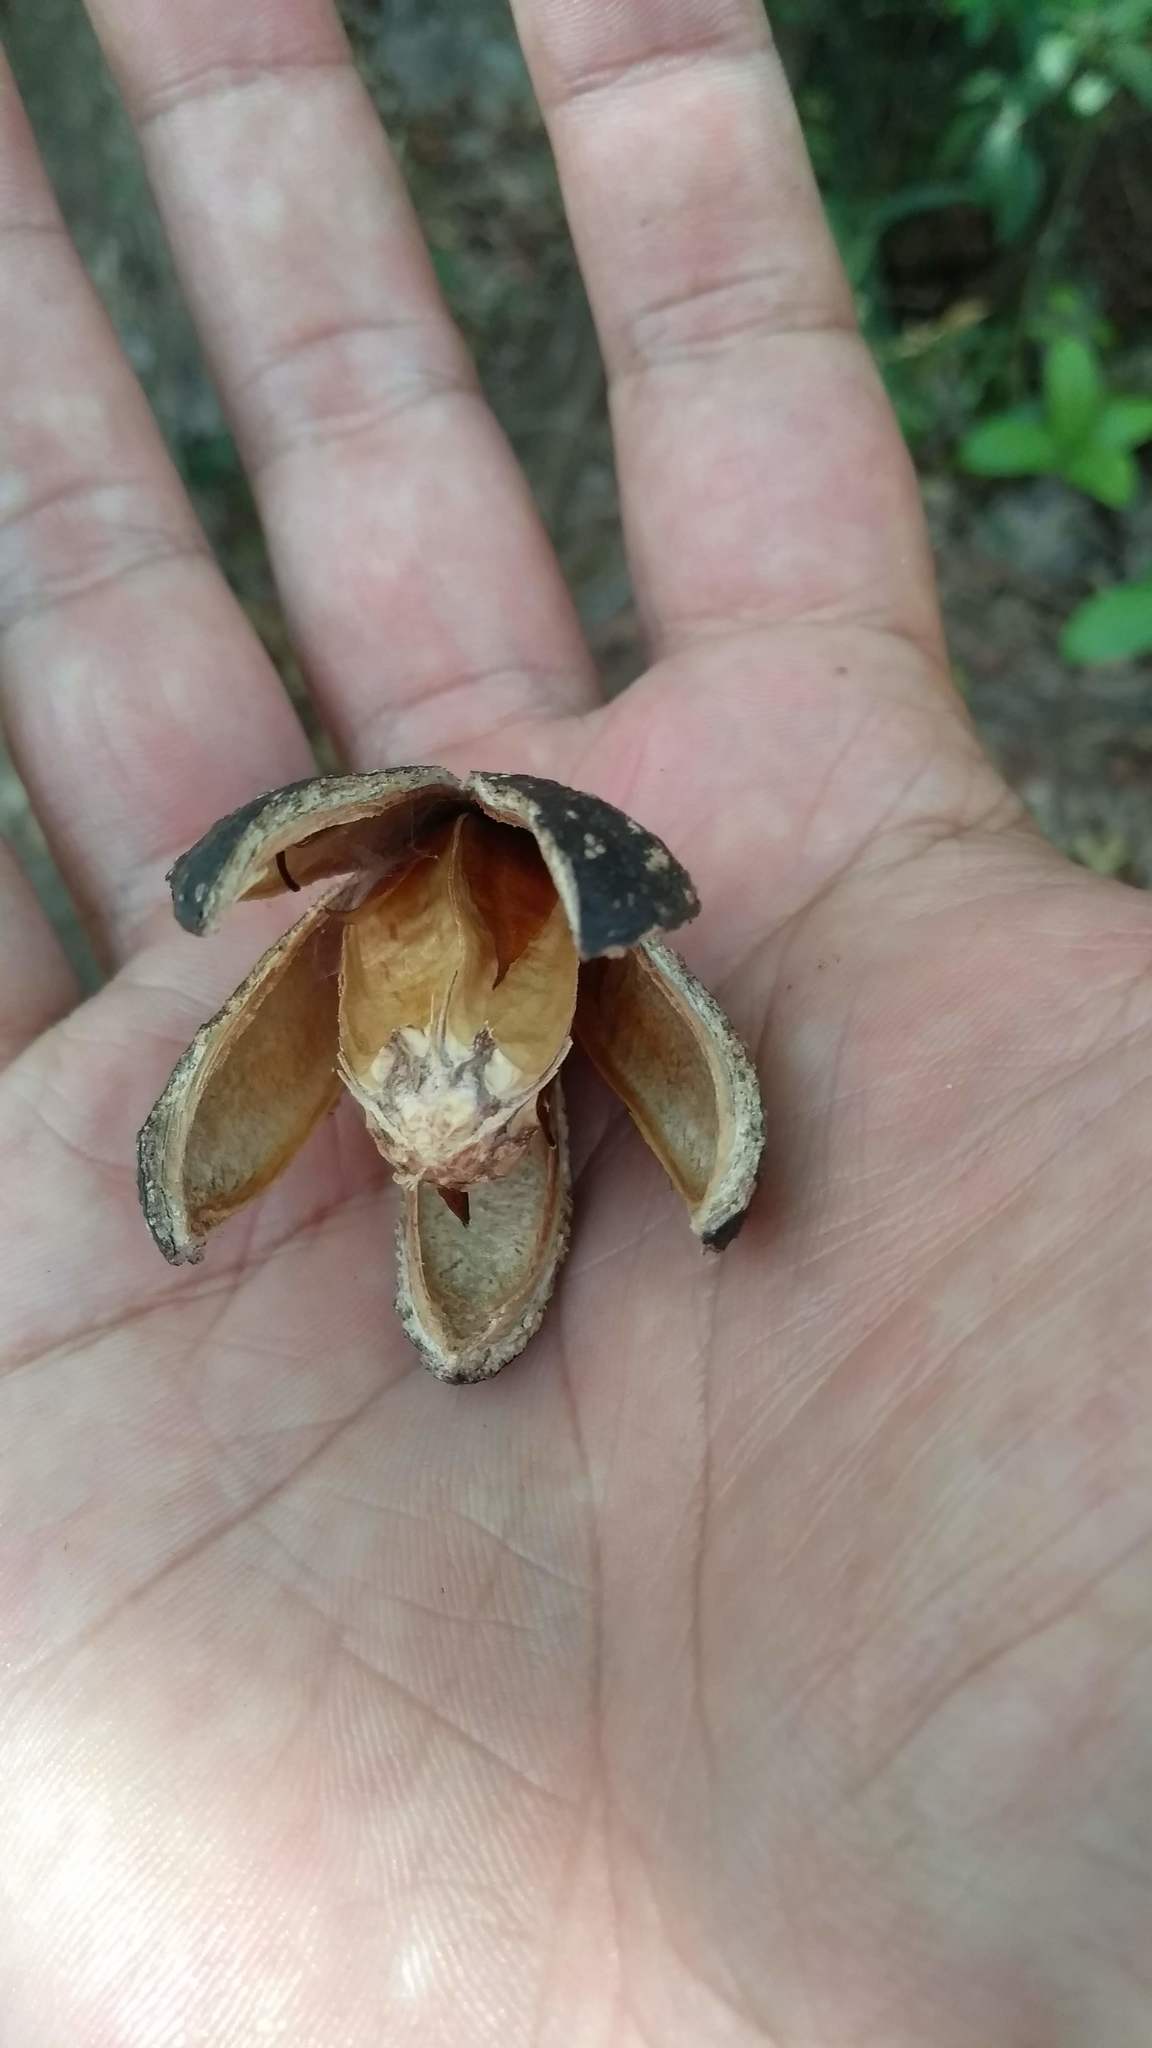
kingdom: Plantae
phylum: Tracheophyta
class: Magnoliopsida
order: Sapindales
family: Meliaceae
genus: Cedrela
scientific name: Cedrela odorata
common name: Red cedar
